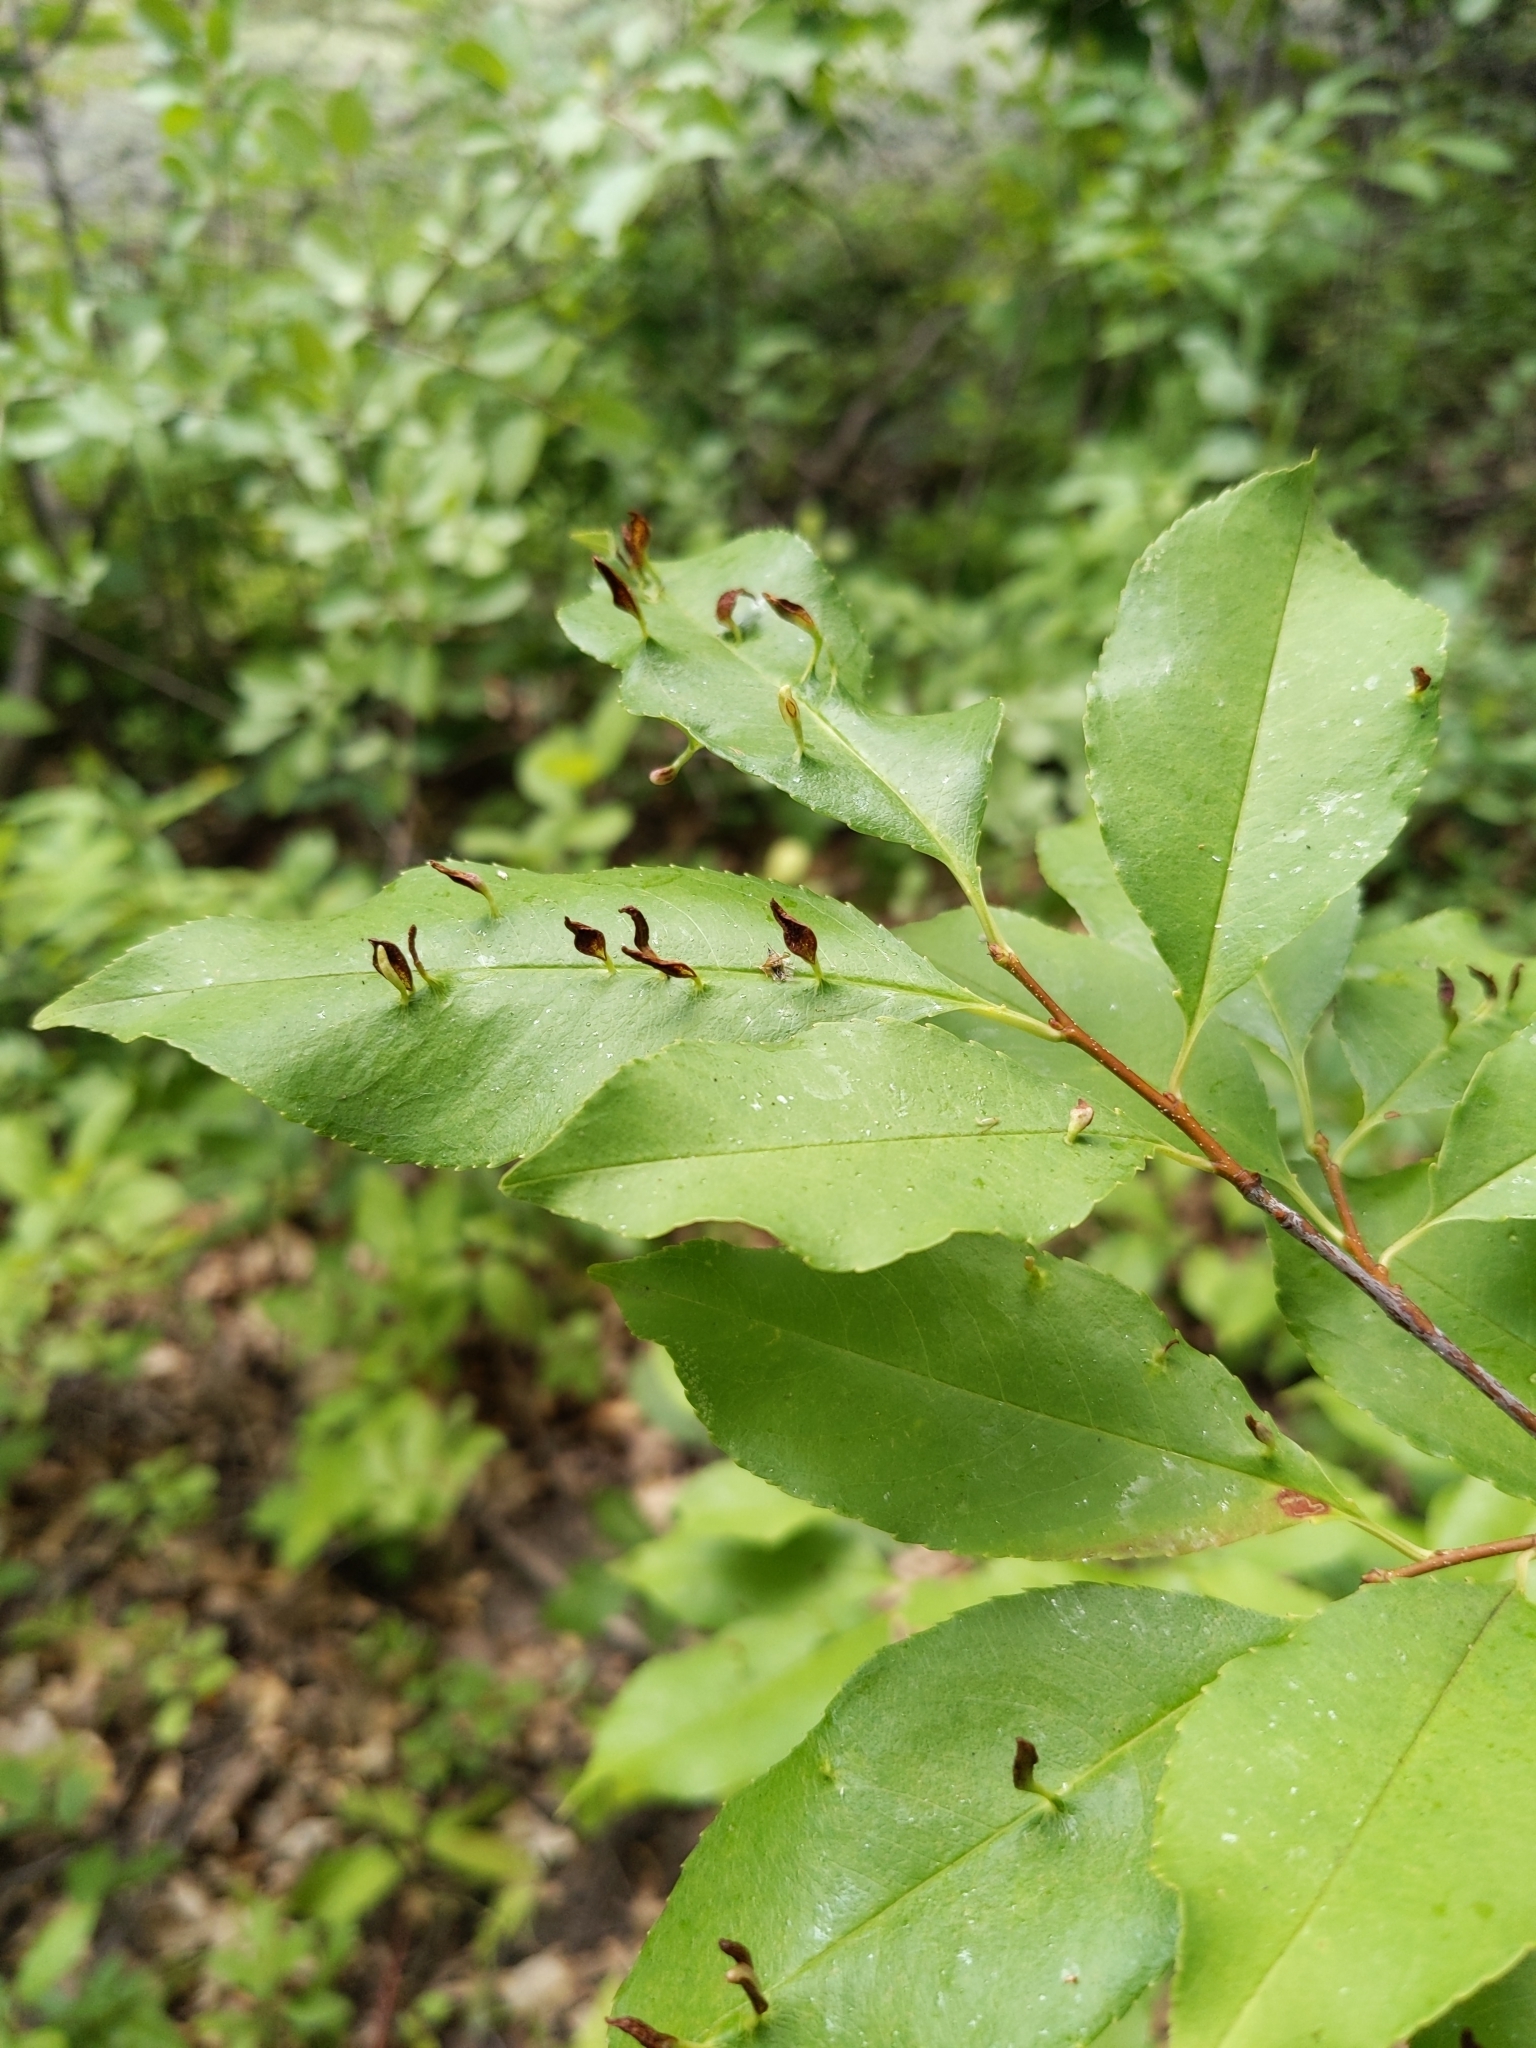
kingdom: Animalia
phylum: Arthropoda
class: Arachnida
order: Trombidiformes
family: Eriophyidae
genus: Eriophyes
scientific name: Eriophyes
